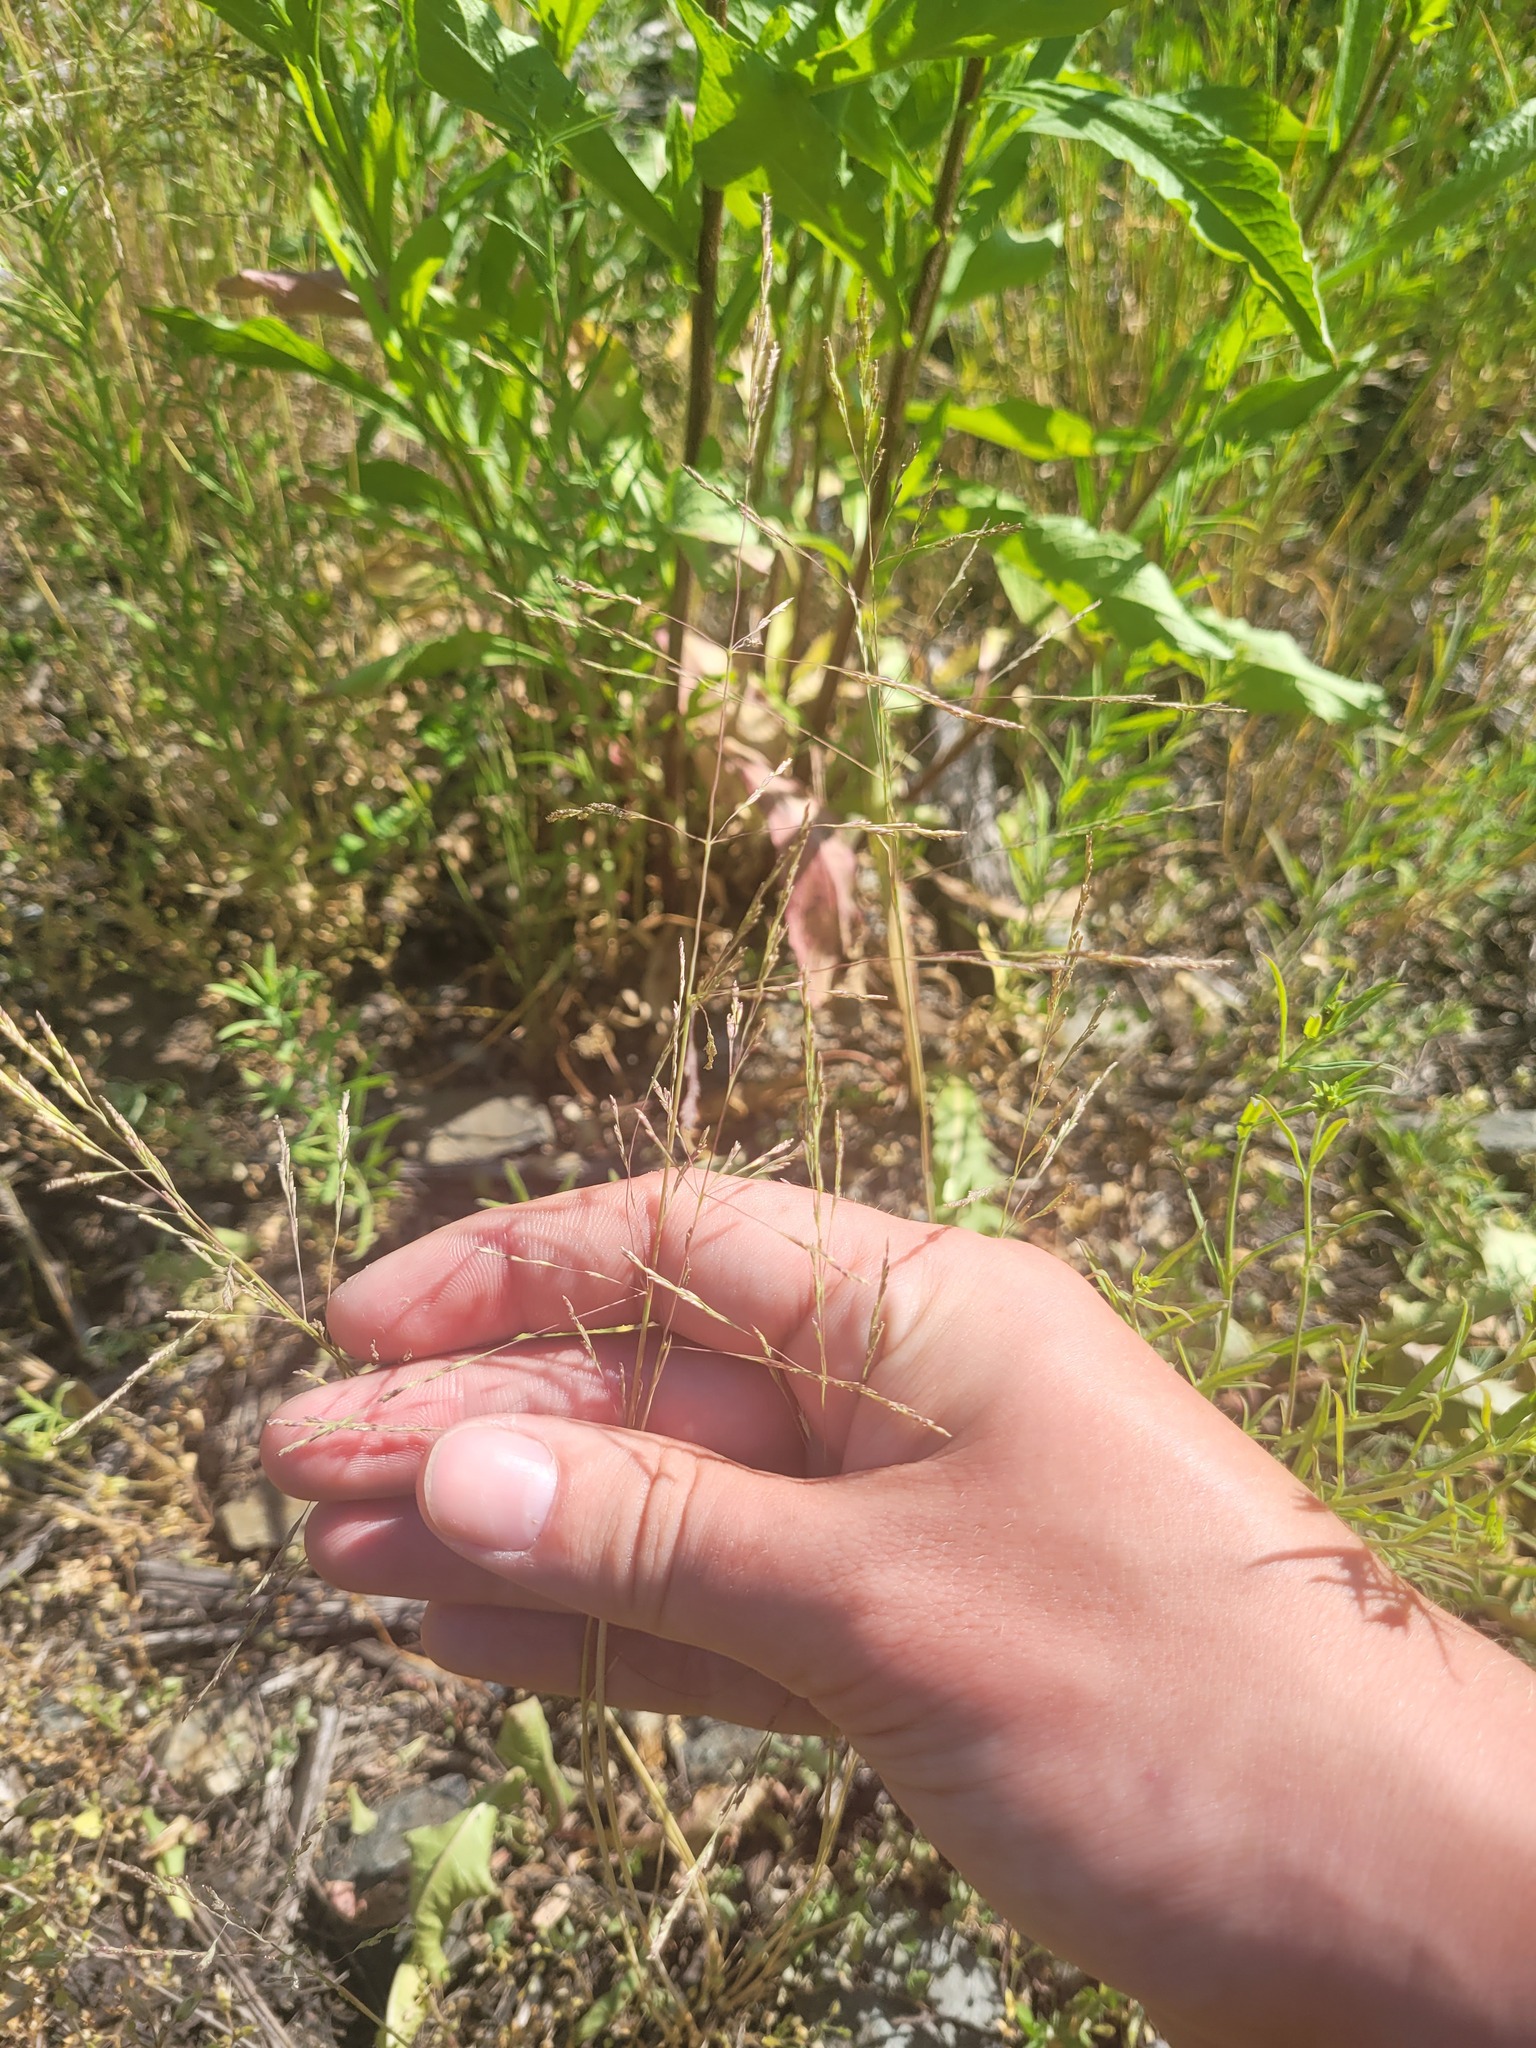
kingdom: Plantae
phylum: Tracheophyta
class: Liliopsida
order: Poales
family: Poaceae
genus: Puccinellia
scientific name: Puccinellia distans
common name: Weeping alkaligrass
